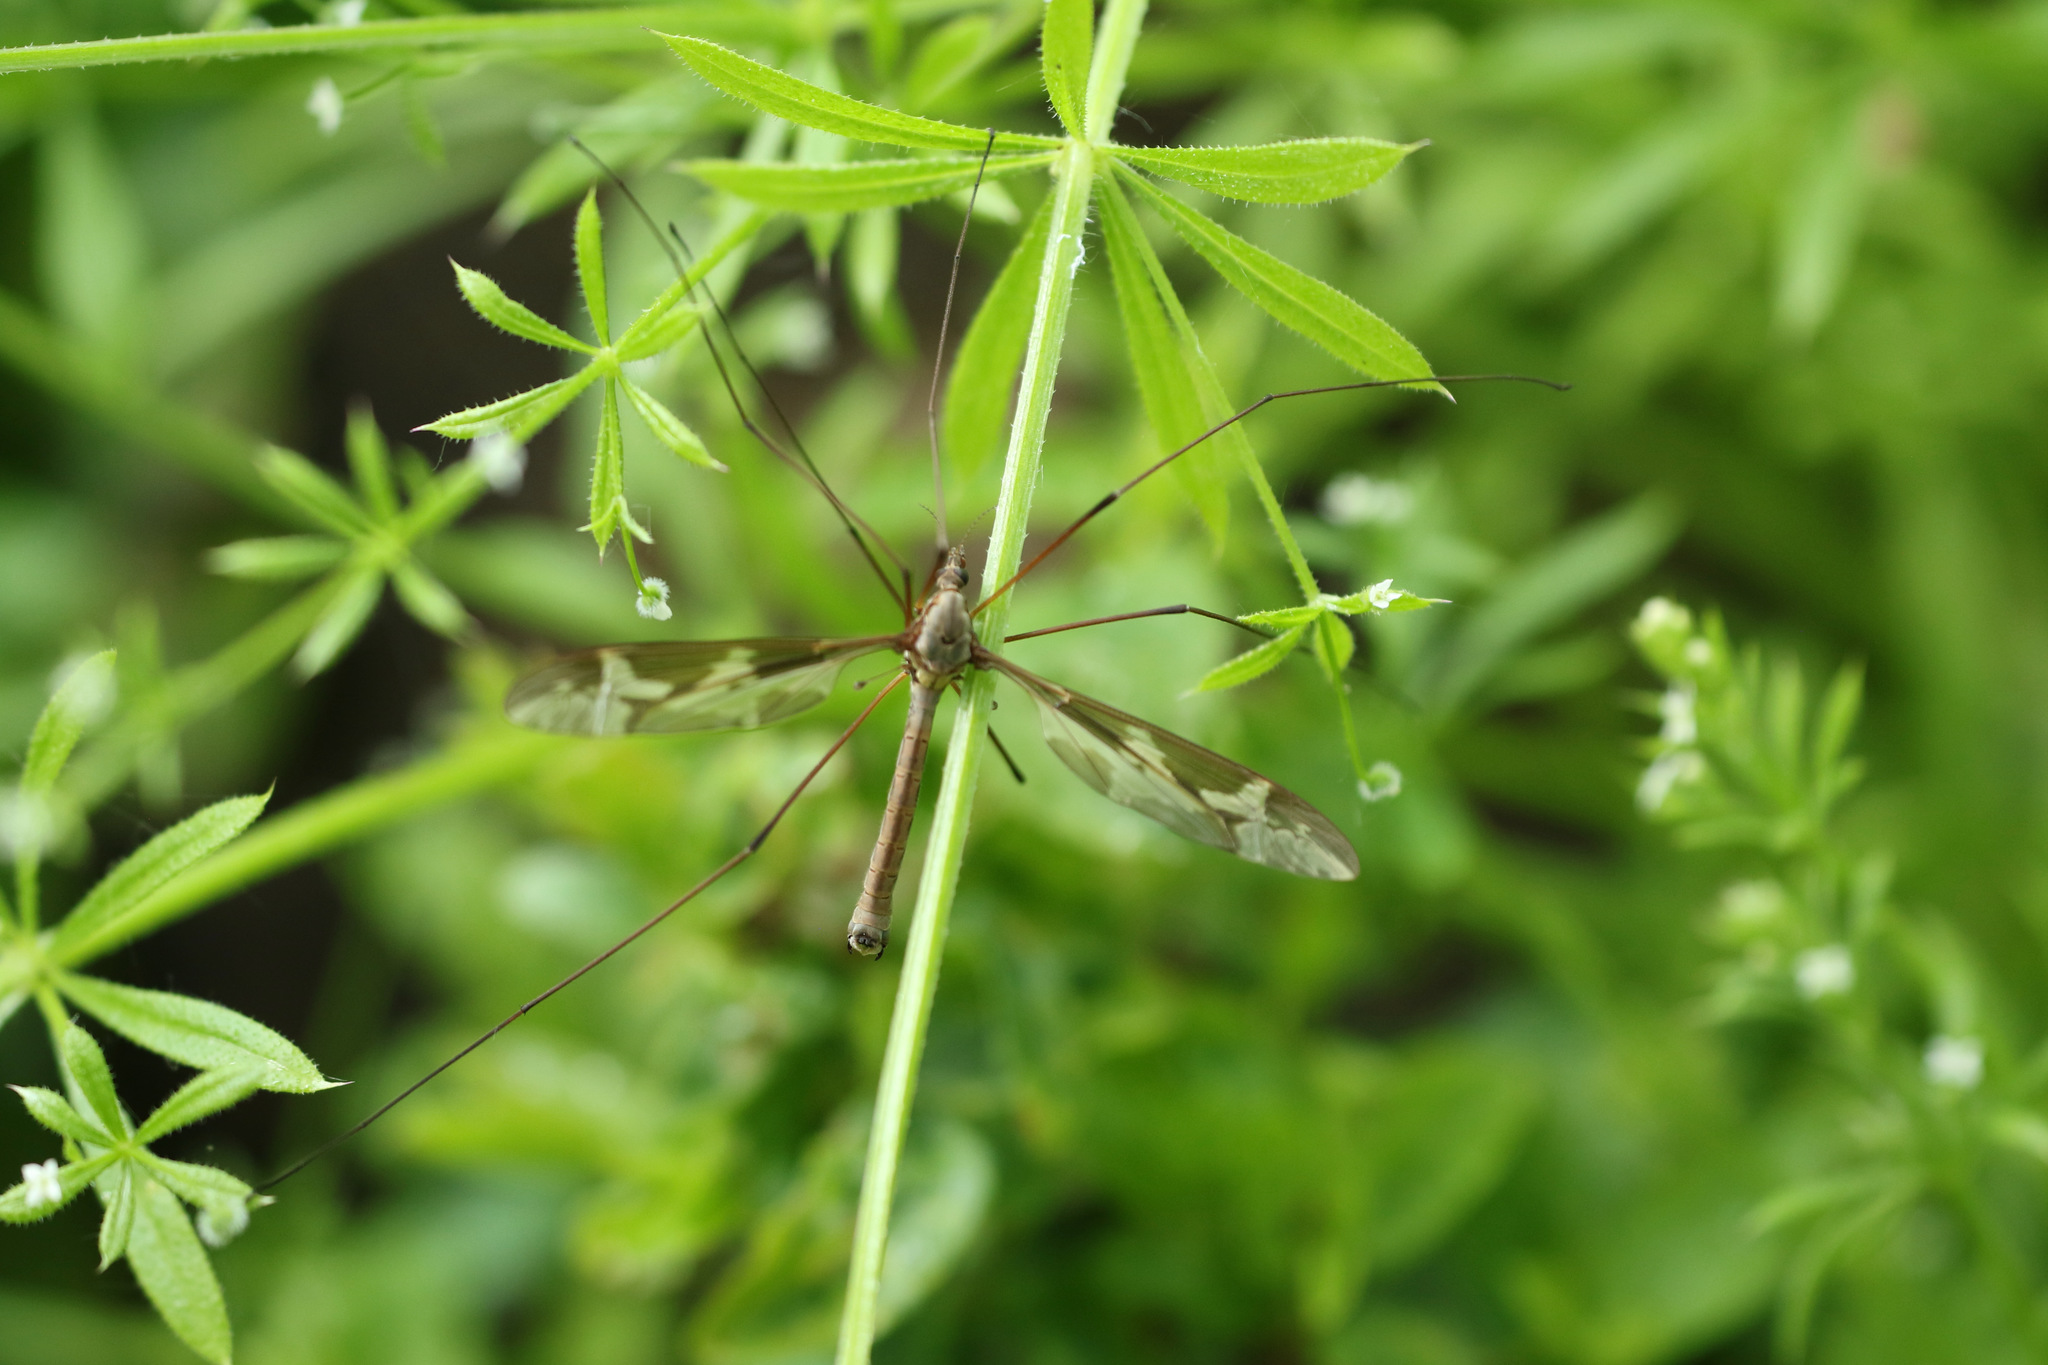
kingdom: Animalia
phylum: Arthropoda
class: Insecta
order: Diptera
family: Tipulidae
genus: Tipula
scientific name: Tipula maxima
